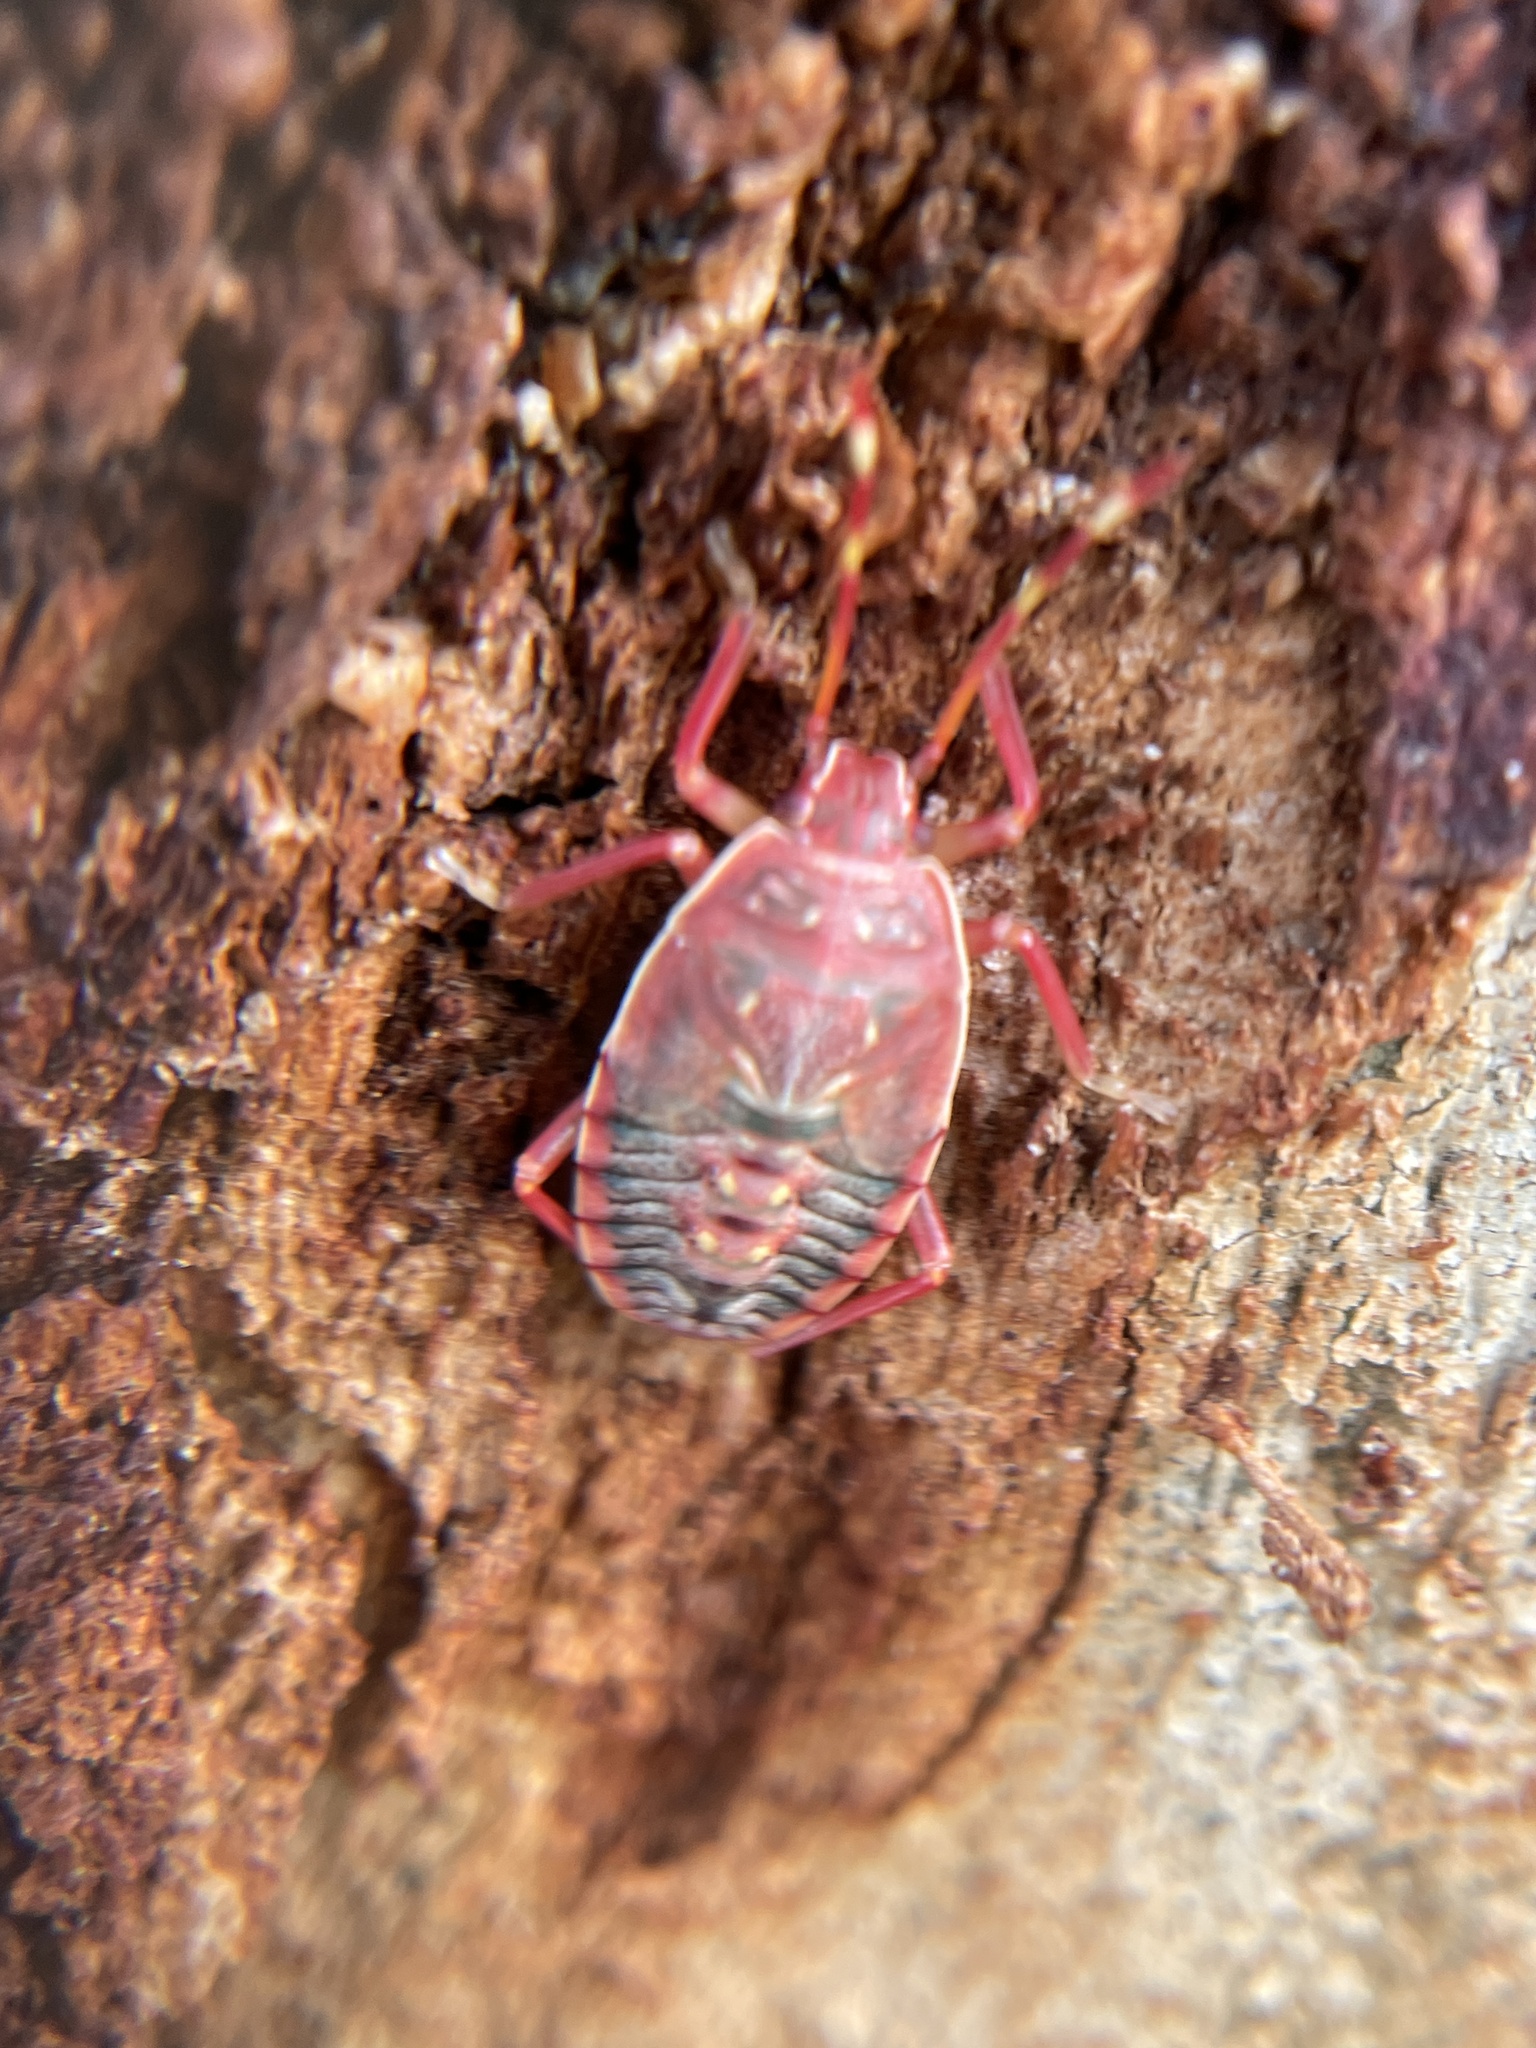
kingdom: Animalia
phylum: Arthropoda
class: Insecta
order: Hemiptera
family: Pentatomidae
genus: Notius
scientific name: Notius
